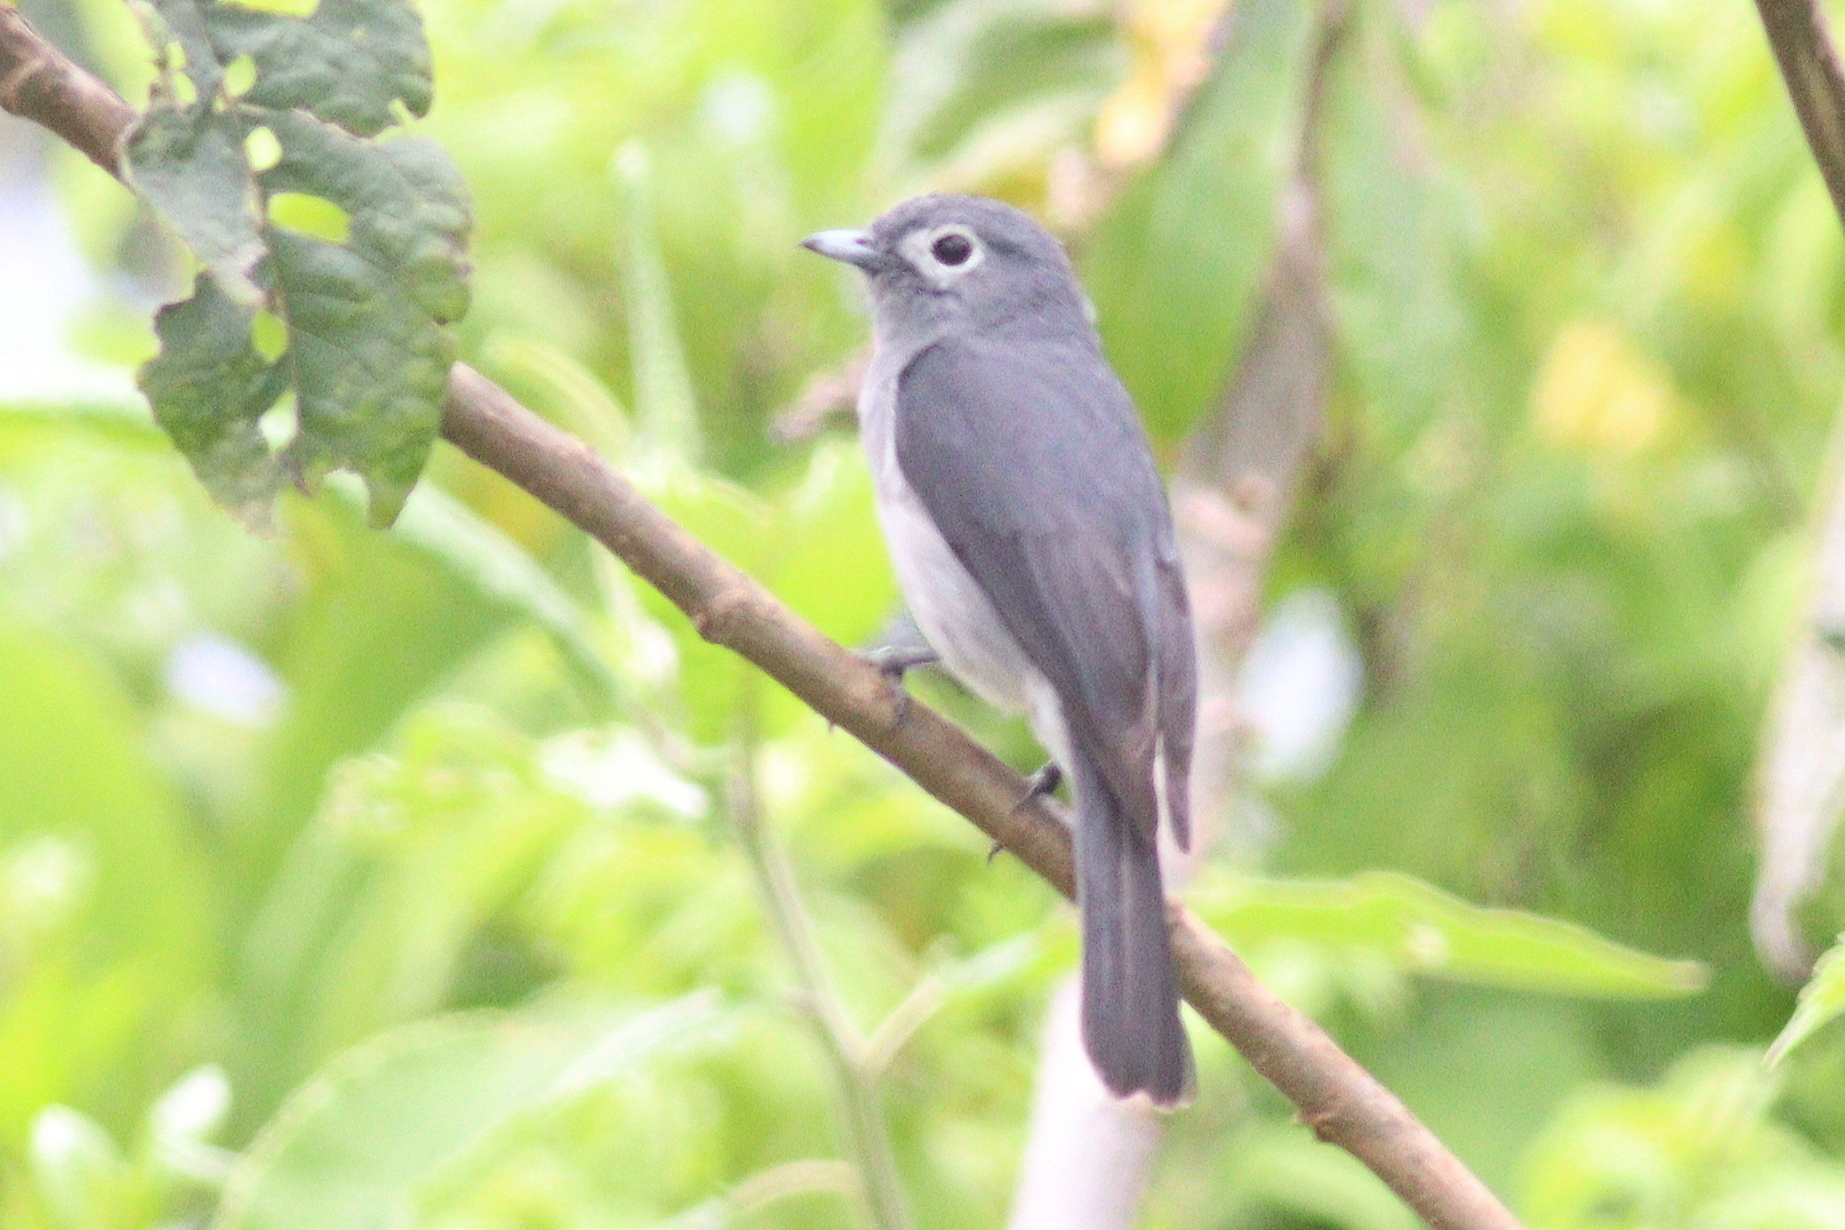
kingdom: Animalia
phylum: Chordata
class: Aves
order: Passeriformes
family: Muscicapidae
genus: Dioptrornis
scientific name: Dioptrornis fischeri
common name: White-eyed slaty flycatcher
